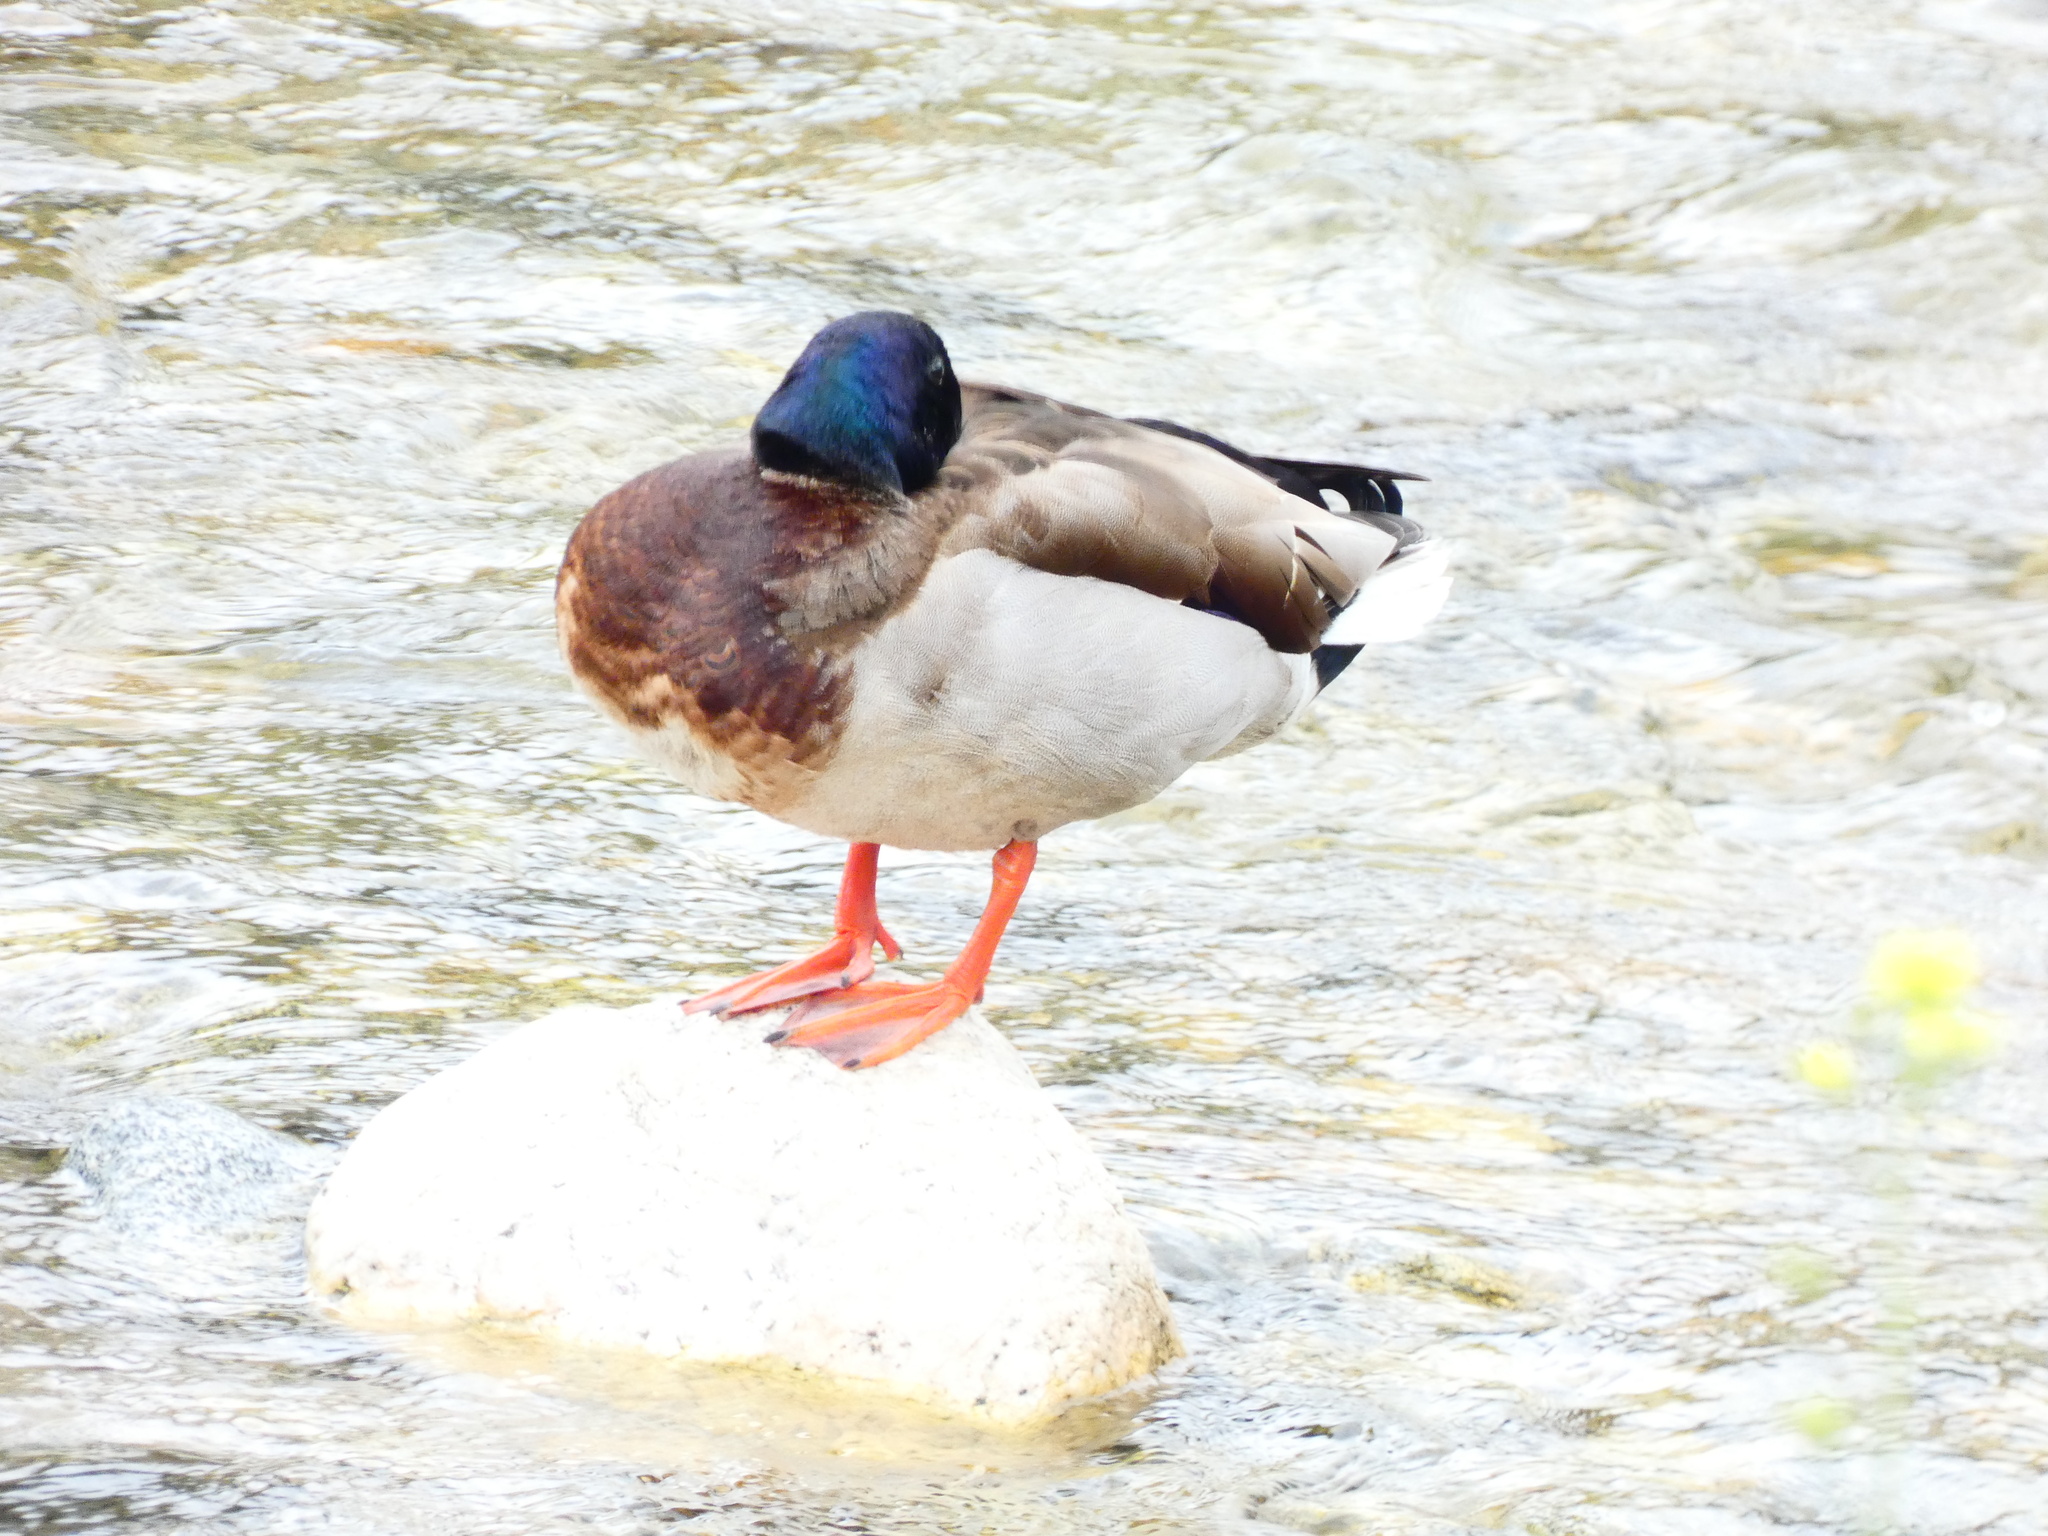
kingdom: Animalia
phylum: Chordata
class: Aves
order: Anseriformes
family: Anatidae
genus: Anas
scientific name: Anas platyrhynchos
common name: Mallard
